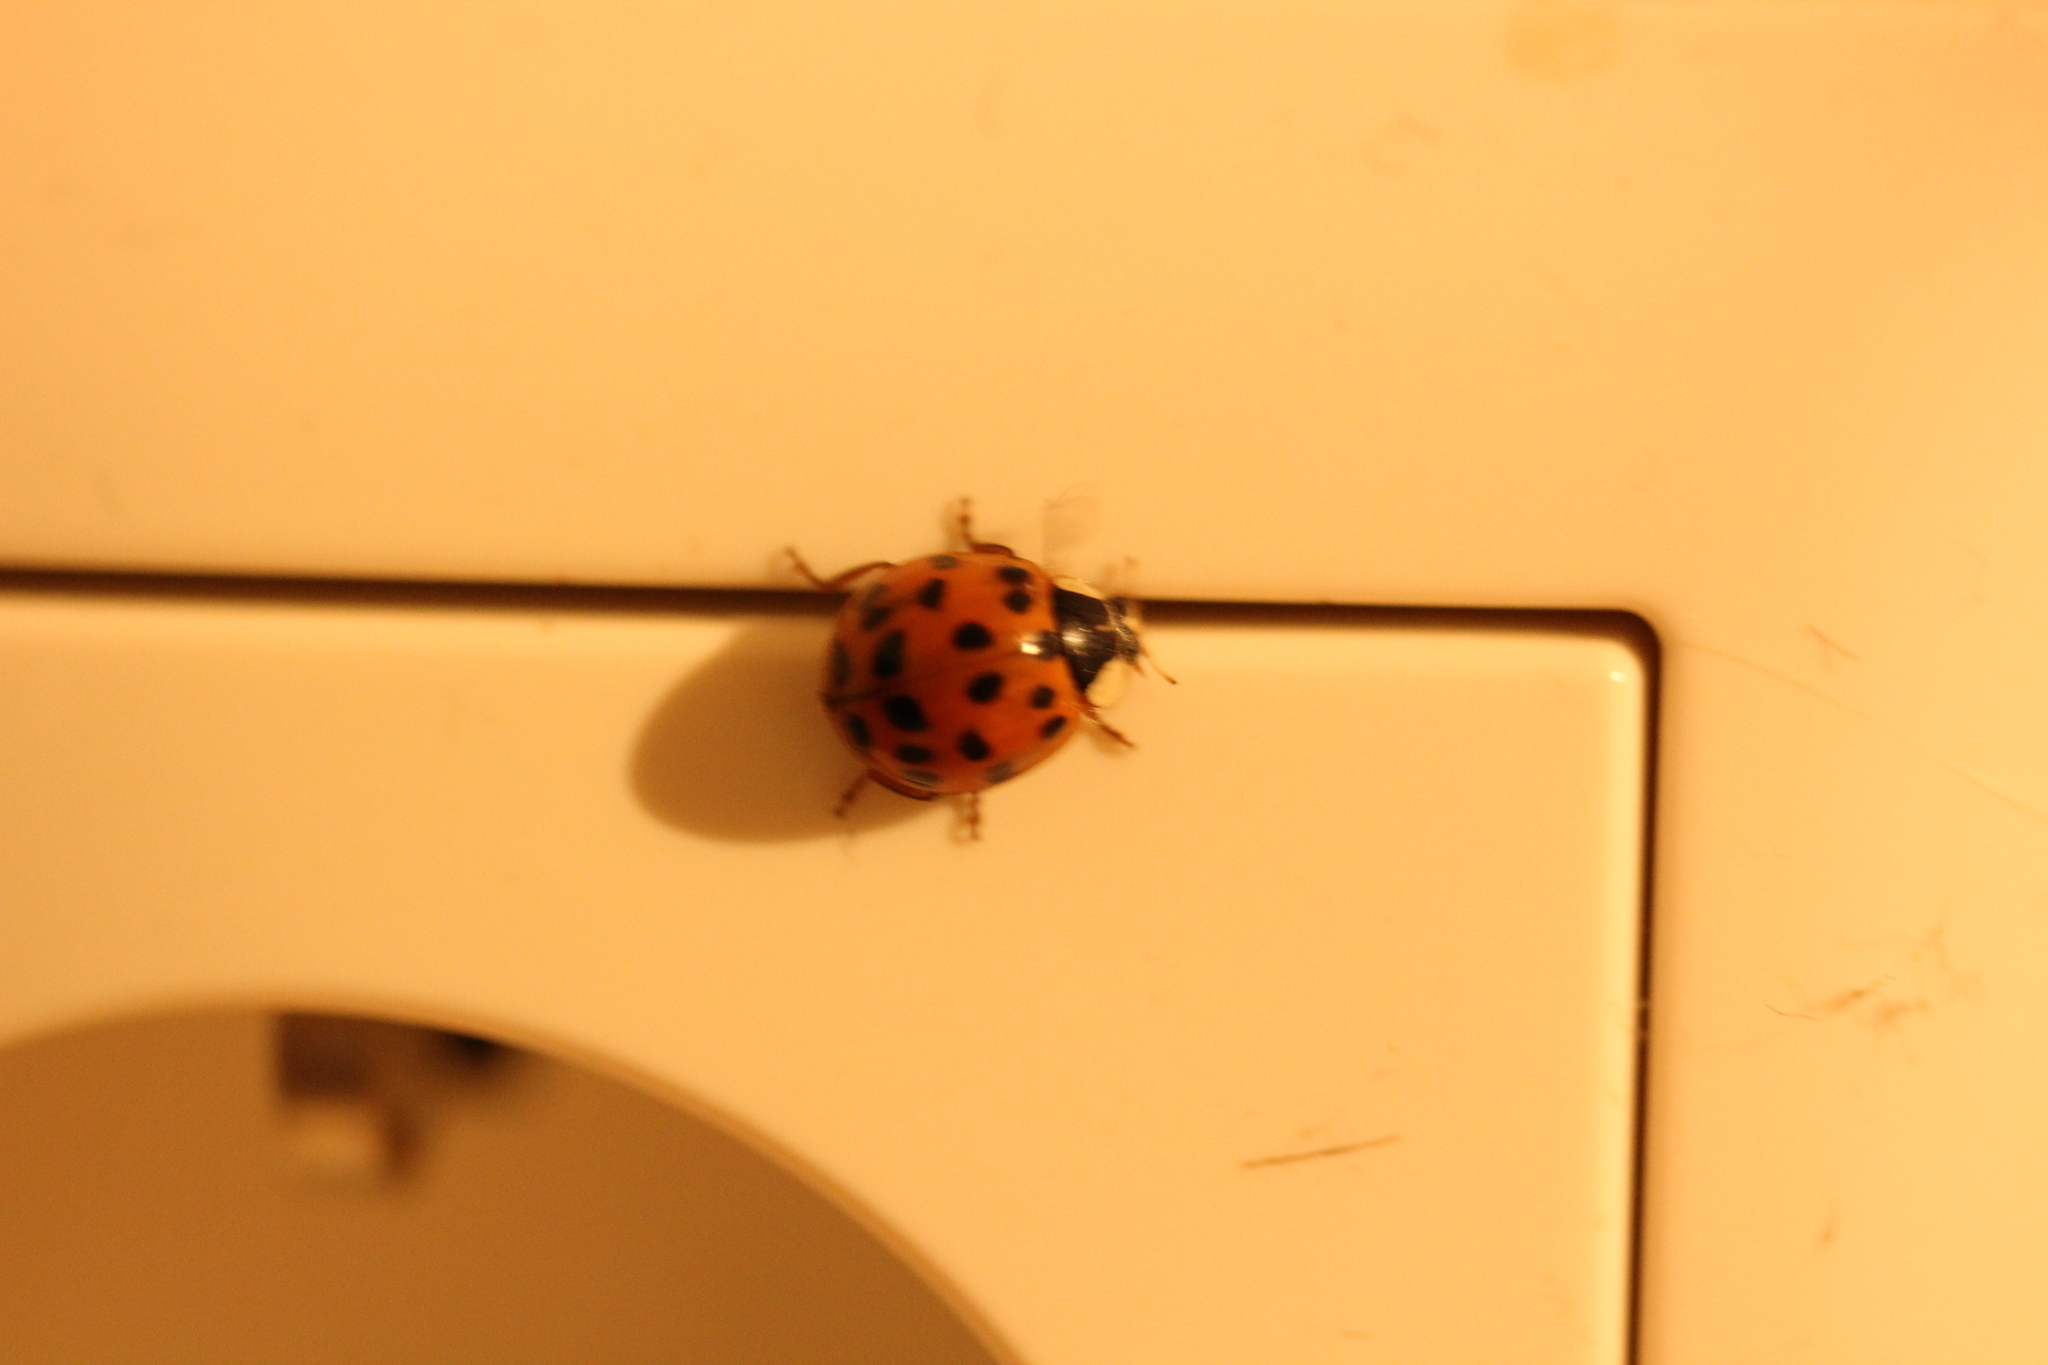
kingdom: Animalia
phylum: Arthropoda
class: Insecta
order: Coleoptera
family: Coccinellidae
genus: Harmonia
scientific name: Harmonia axyridis
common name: Harlequin ladybird
